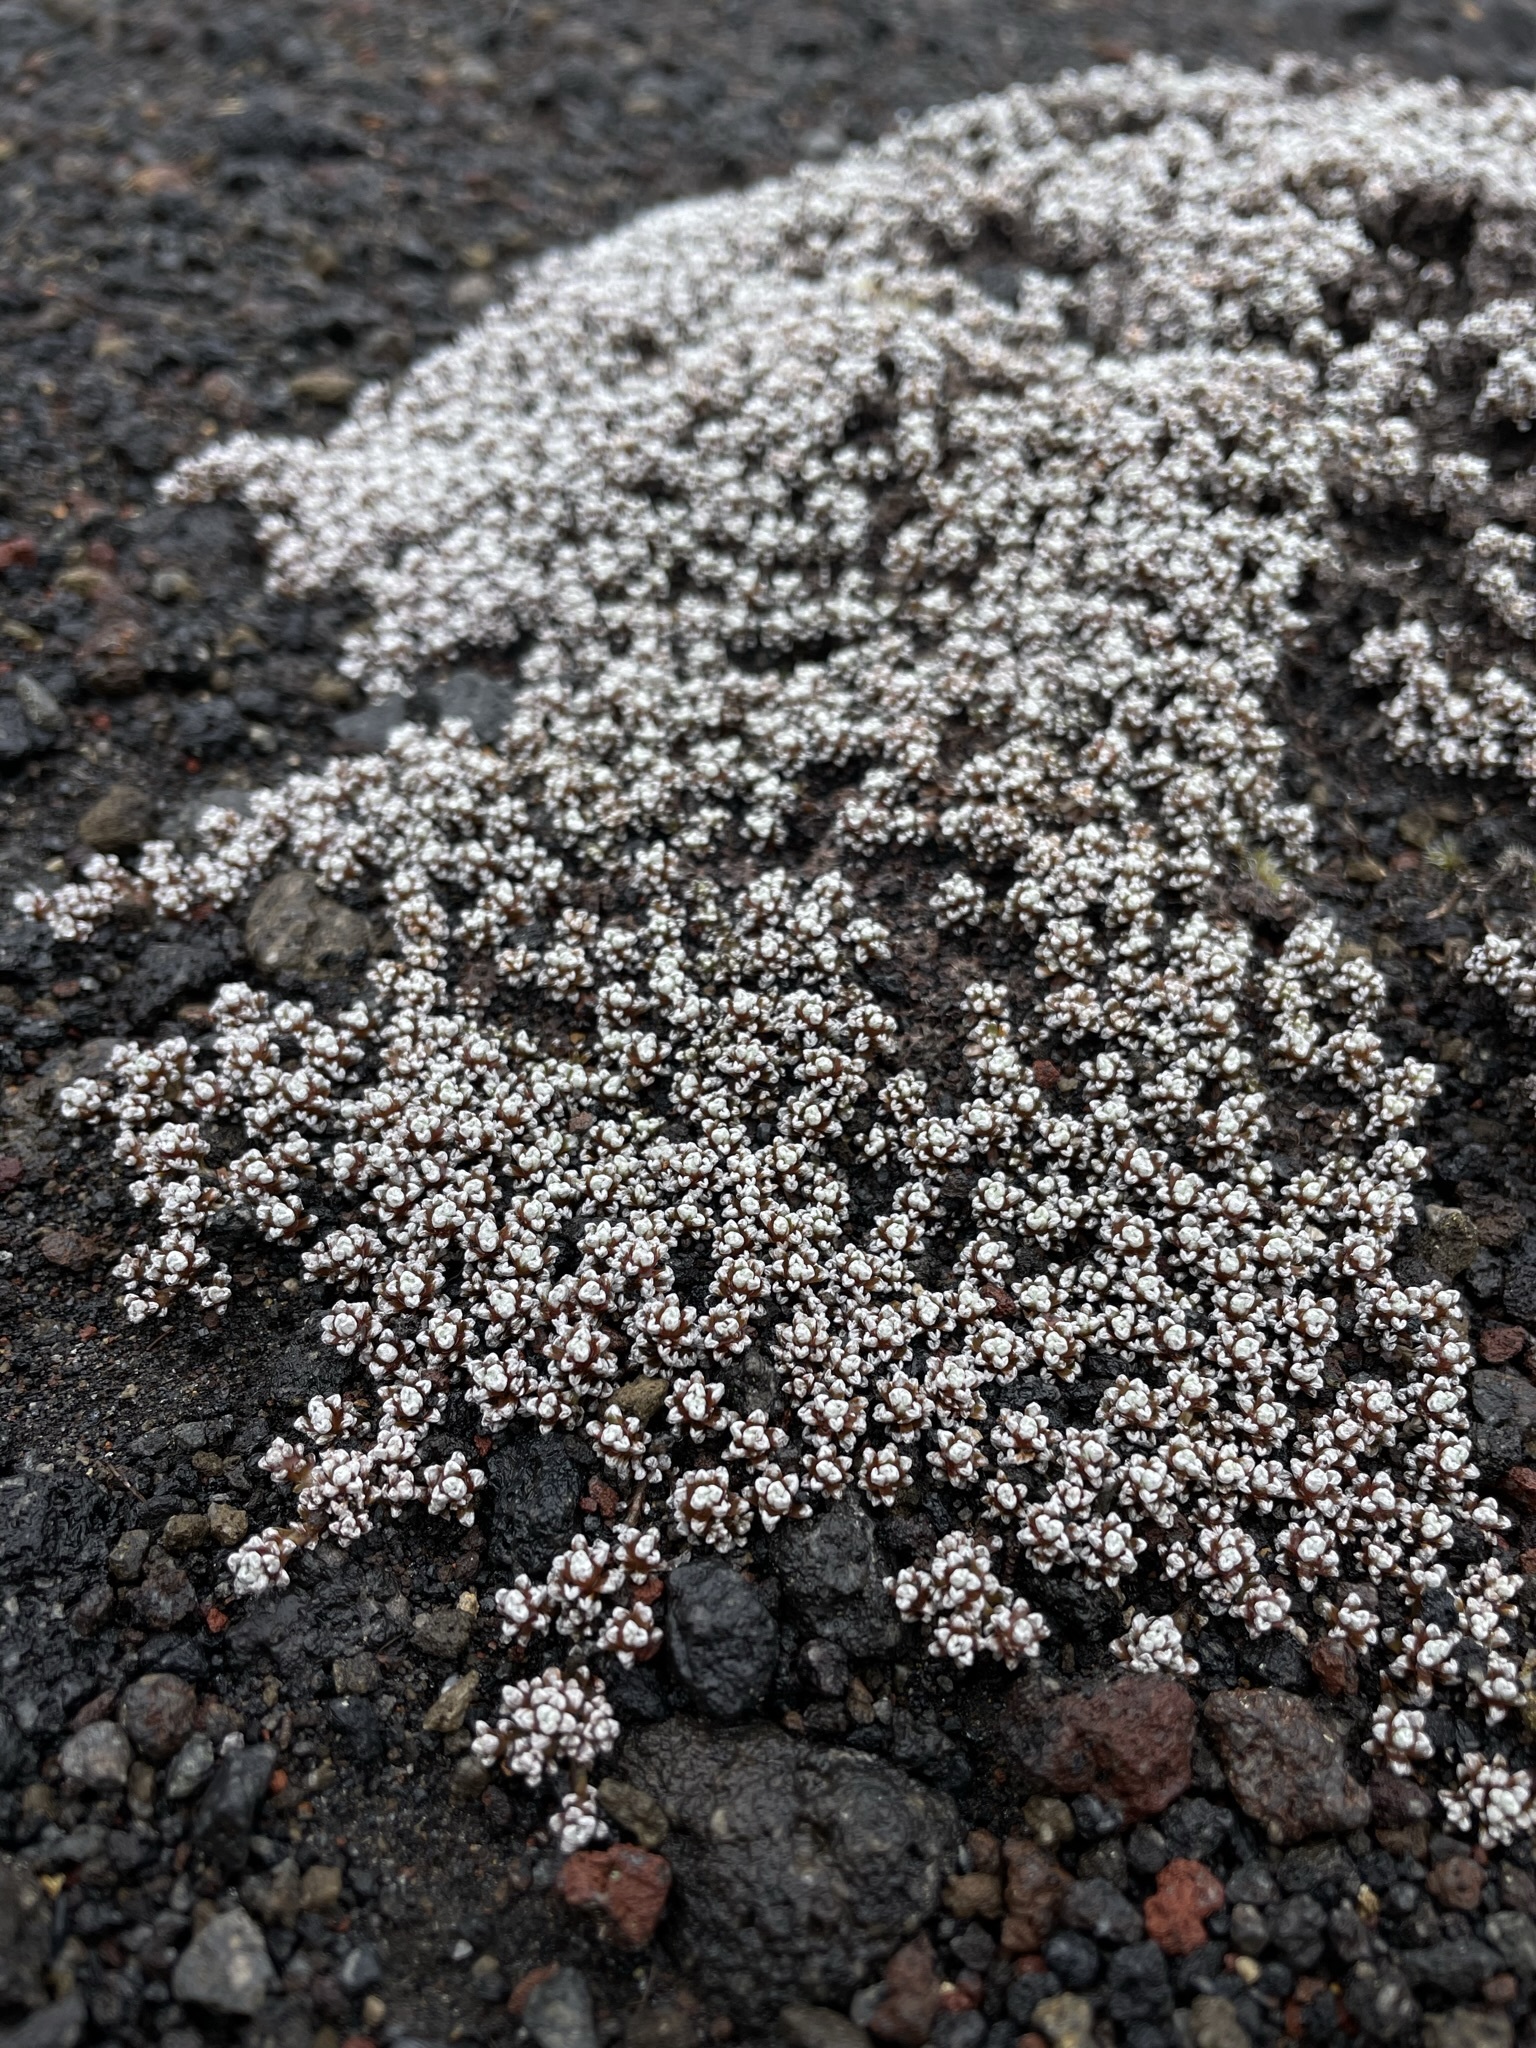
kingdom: Plantae
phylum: Tracheophyta
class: Magnoliopsida
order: Asterales
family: Asteraceae
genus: Raoulia
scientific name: Raoulia albosericea
